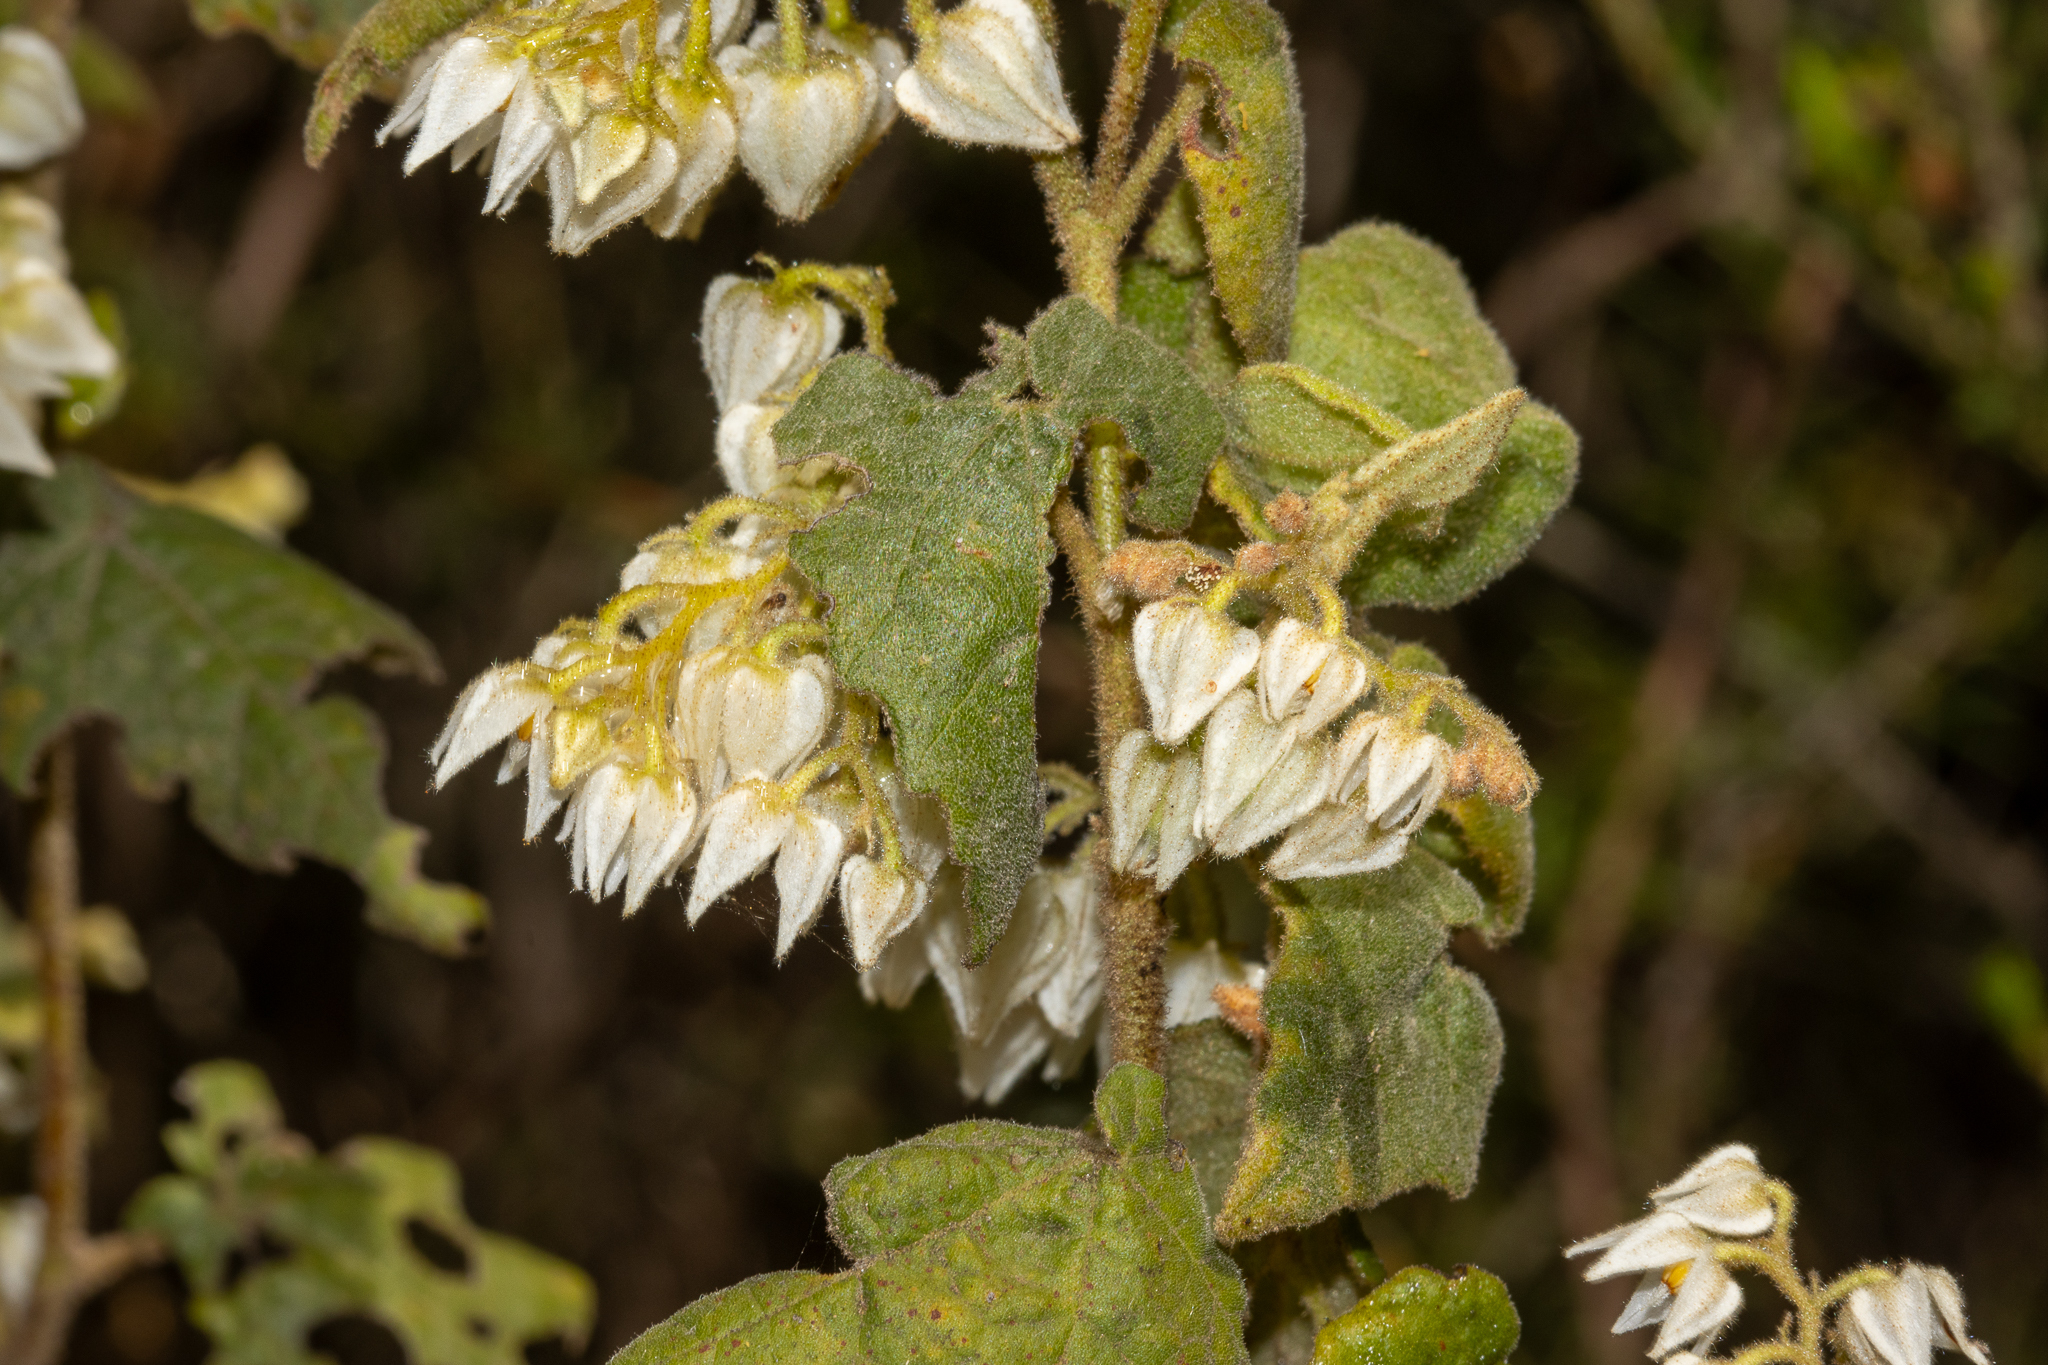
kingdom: Plantae
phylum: Tracheophyta
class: Magnoliopsida
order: Malvales
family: Malvaceae
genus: Lasiopetalum
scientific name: Lasiopetalum schulzenii
